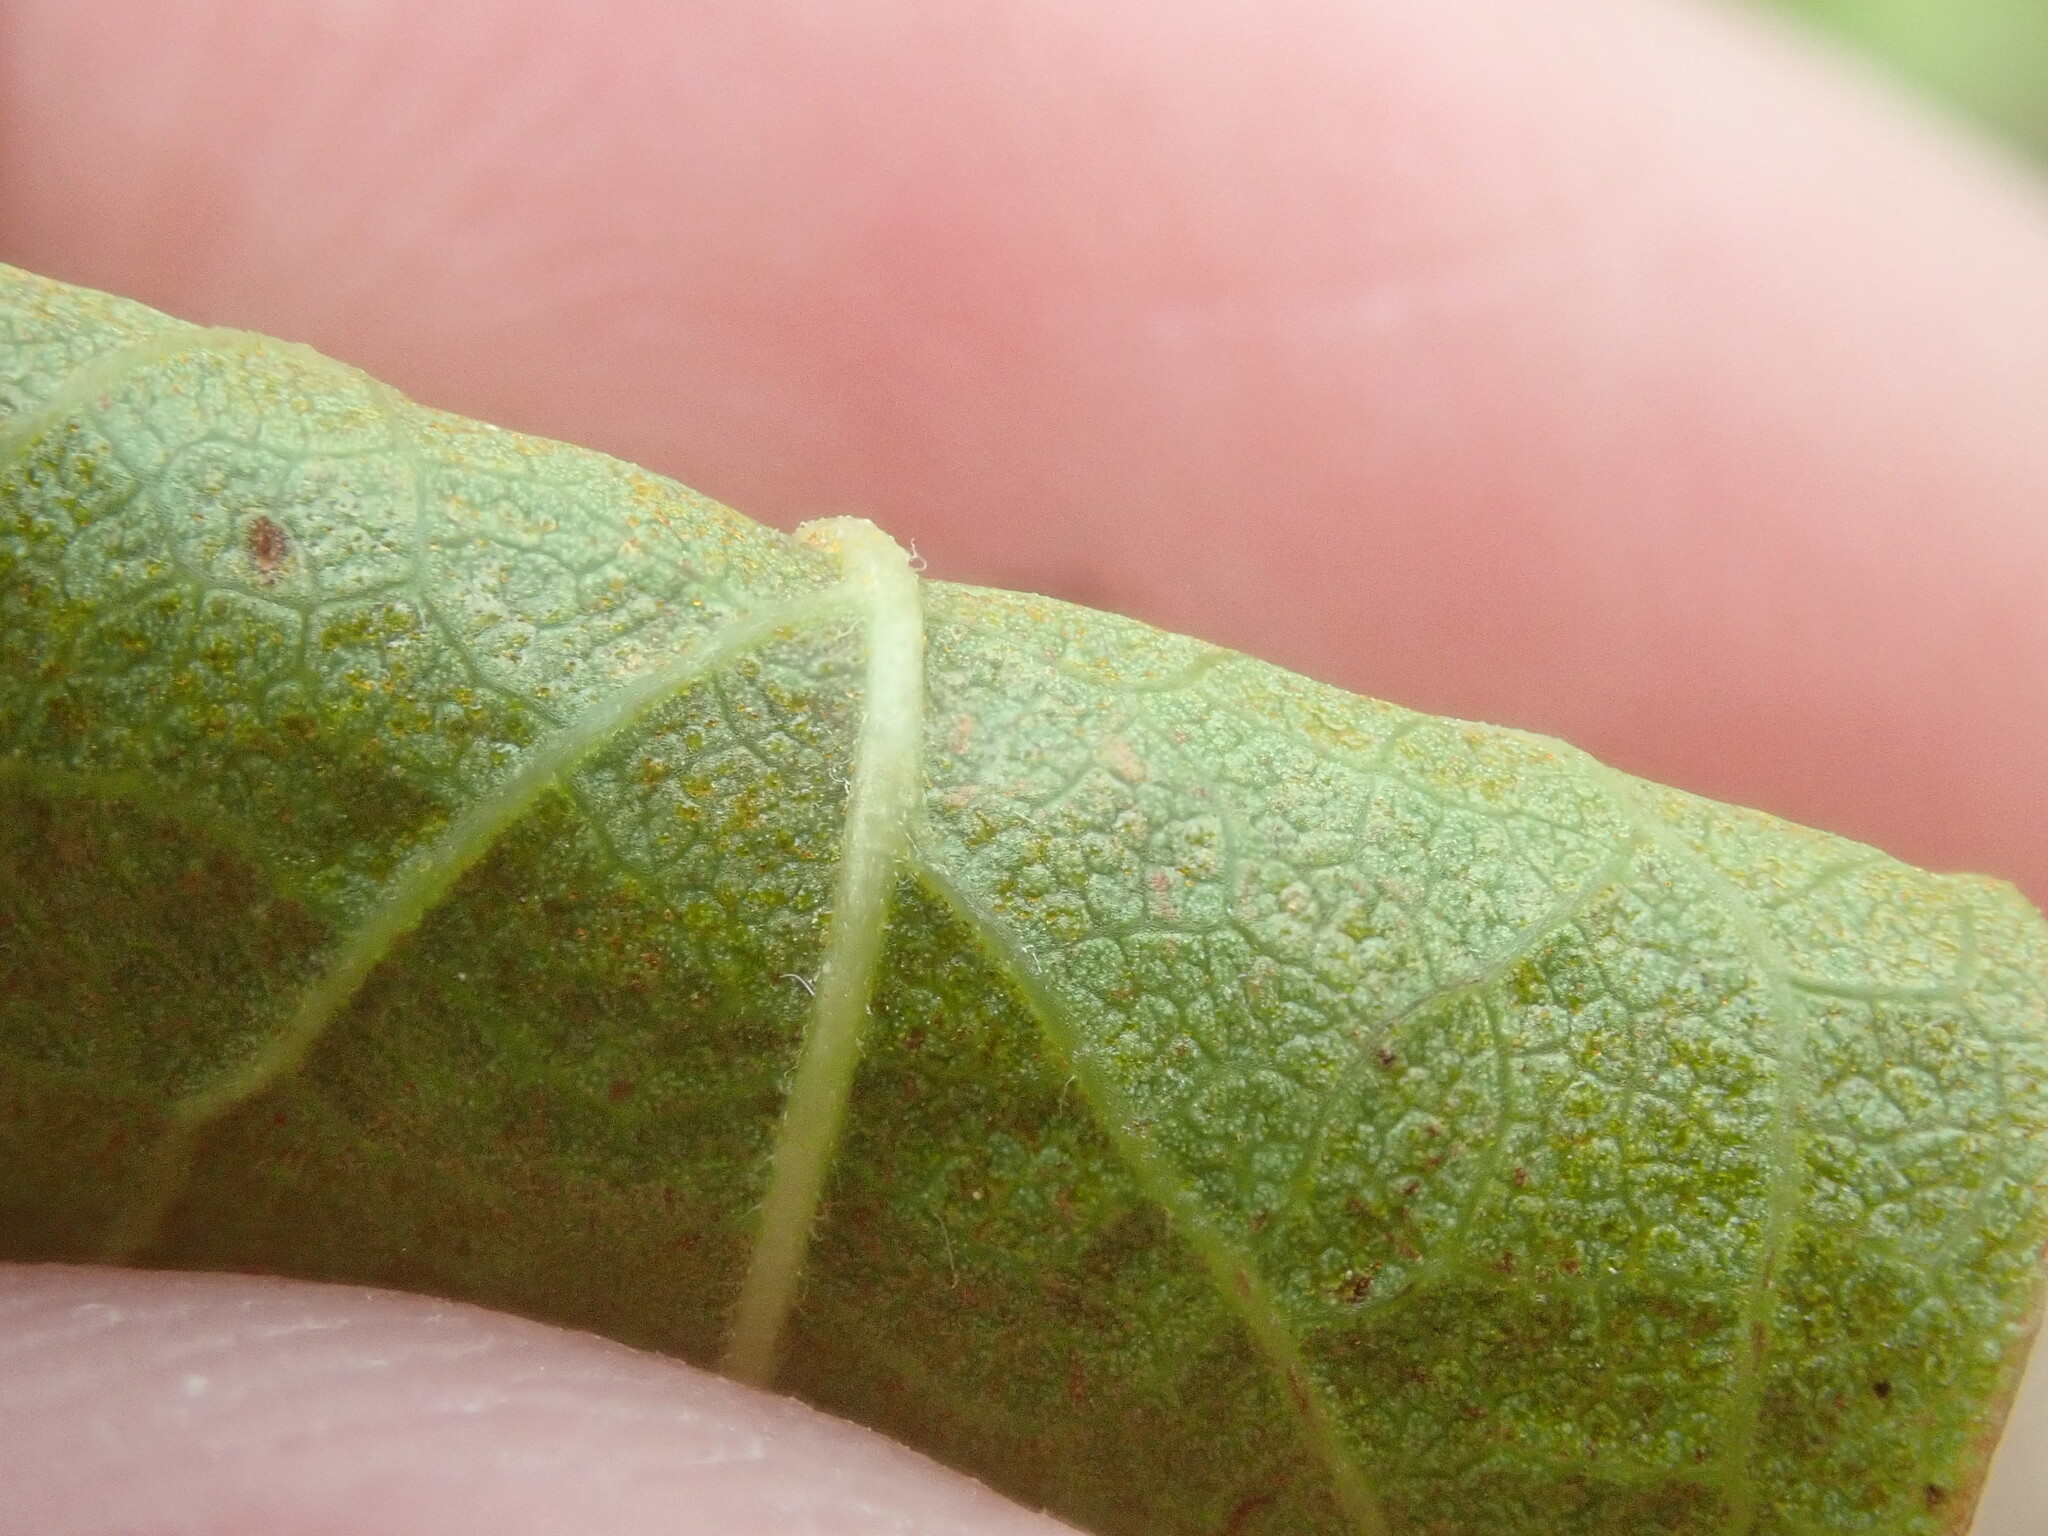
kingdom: Plantae
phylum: Tracheophyta
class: Magnoliopsida
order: Ericales
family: Ericaceae
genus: Gaylussacia
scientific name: Gaylussacia baccata
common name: Black huckleberry
